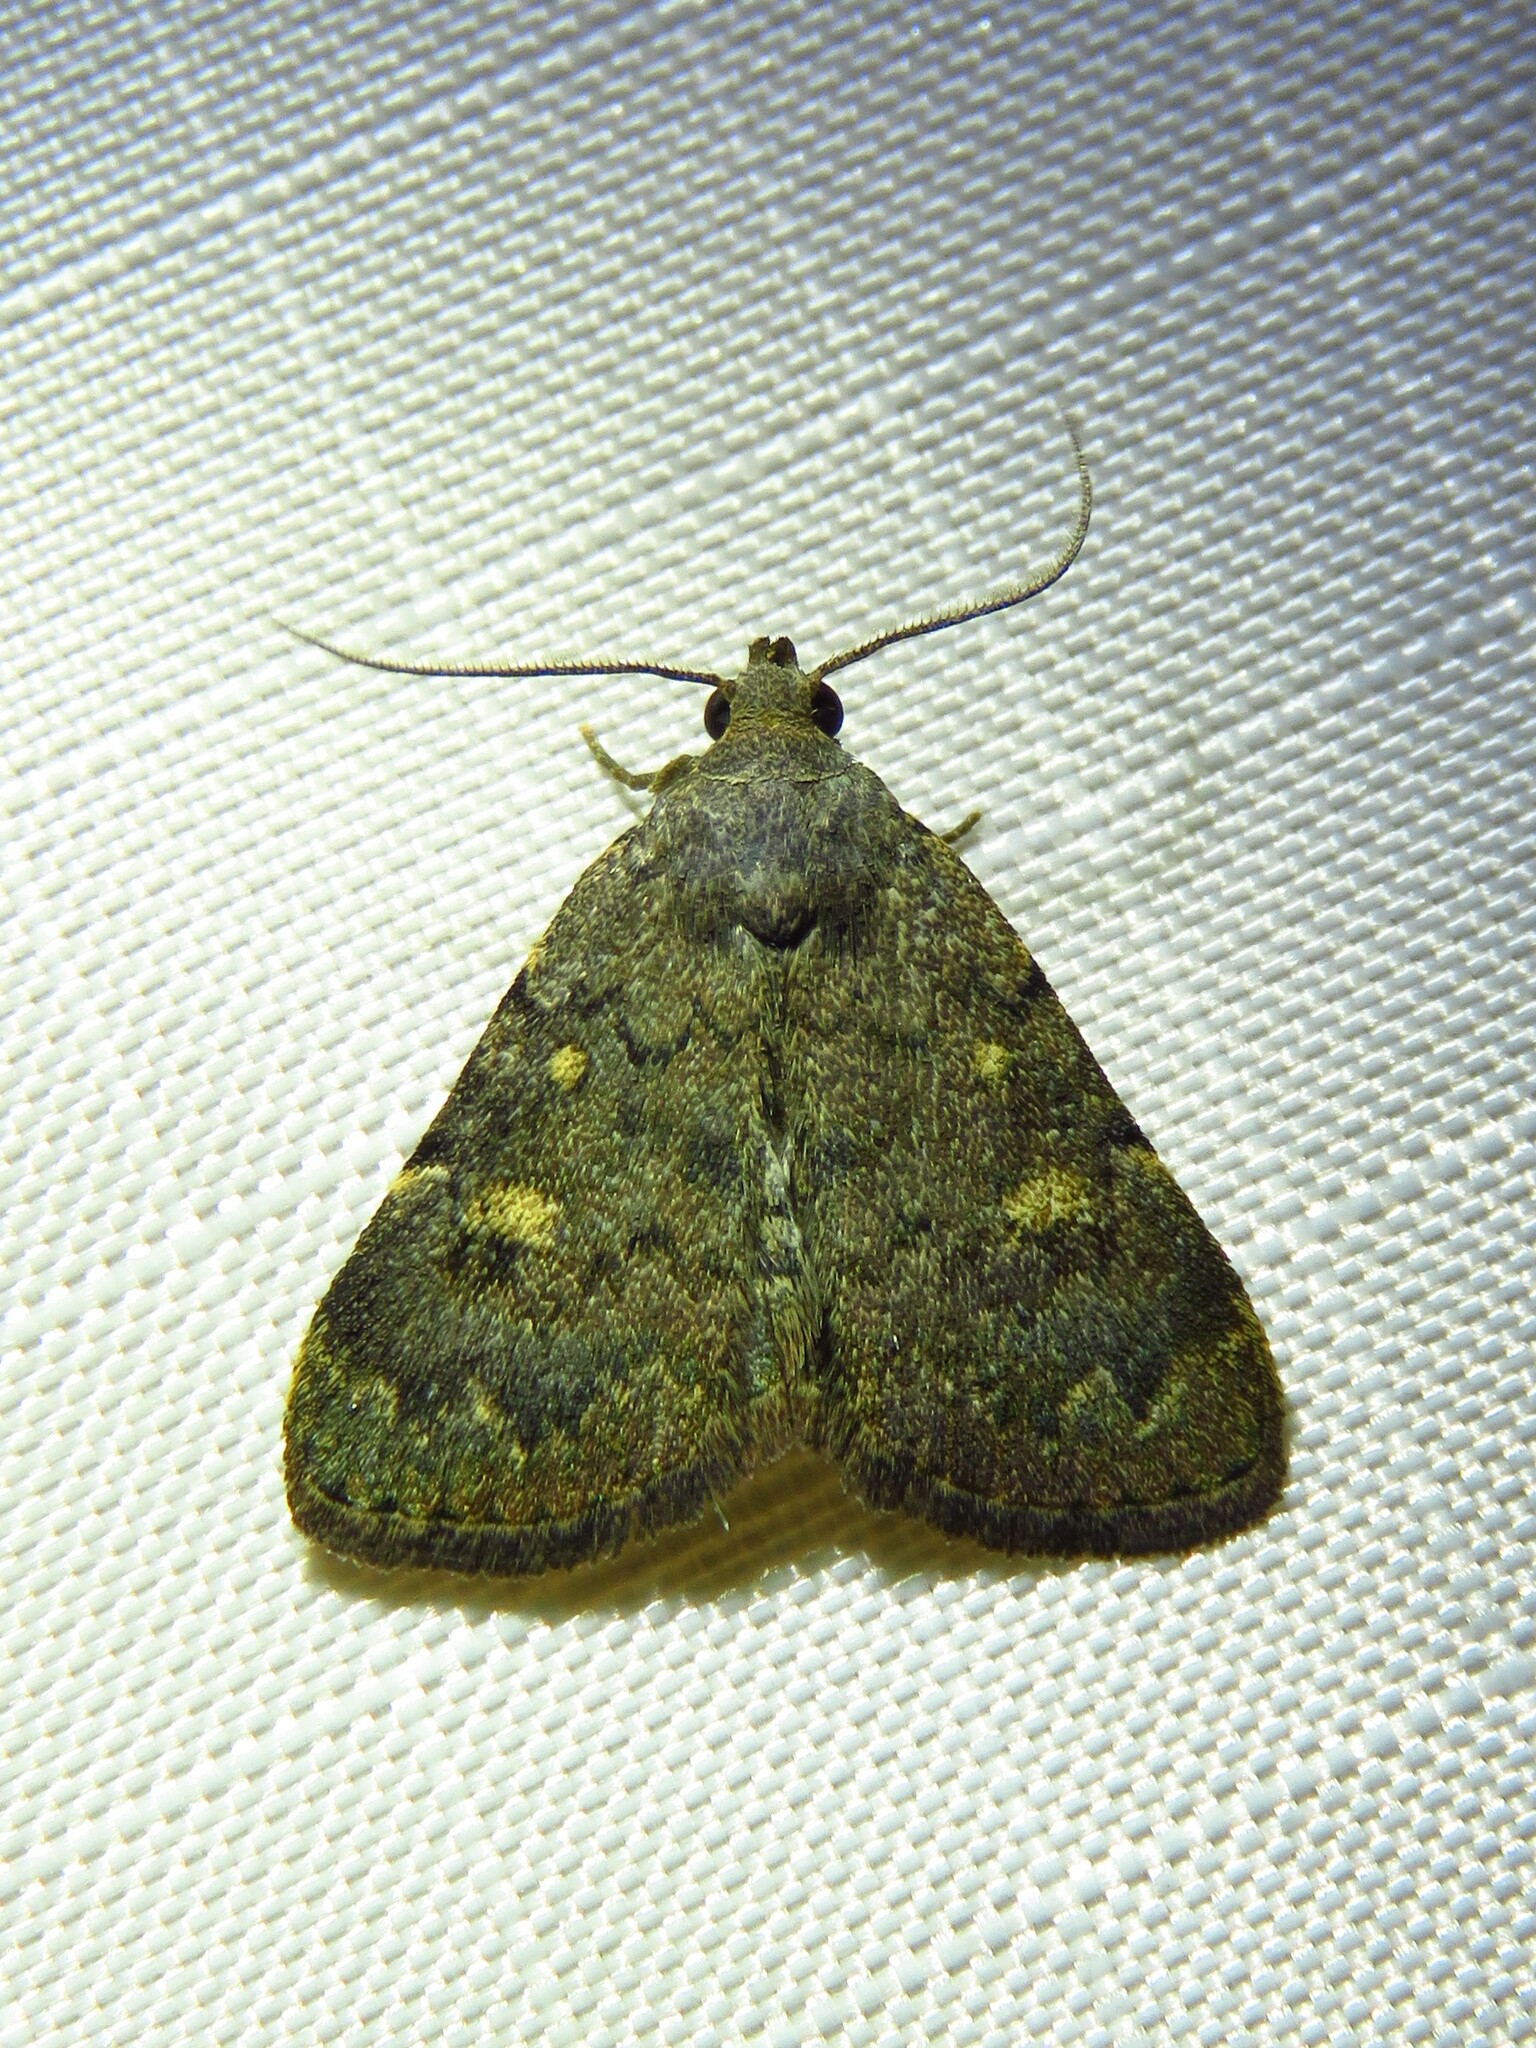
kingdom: Animalia
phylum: Arthropoda
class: Insecta
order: Lepidoptera
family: Erebidae
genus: Idia
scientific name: Idia aemula
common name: Common idia moth
